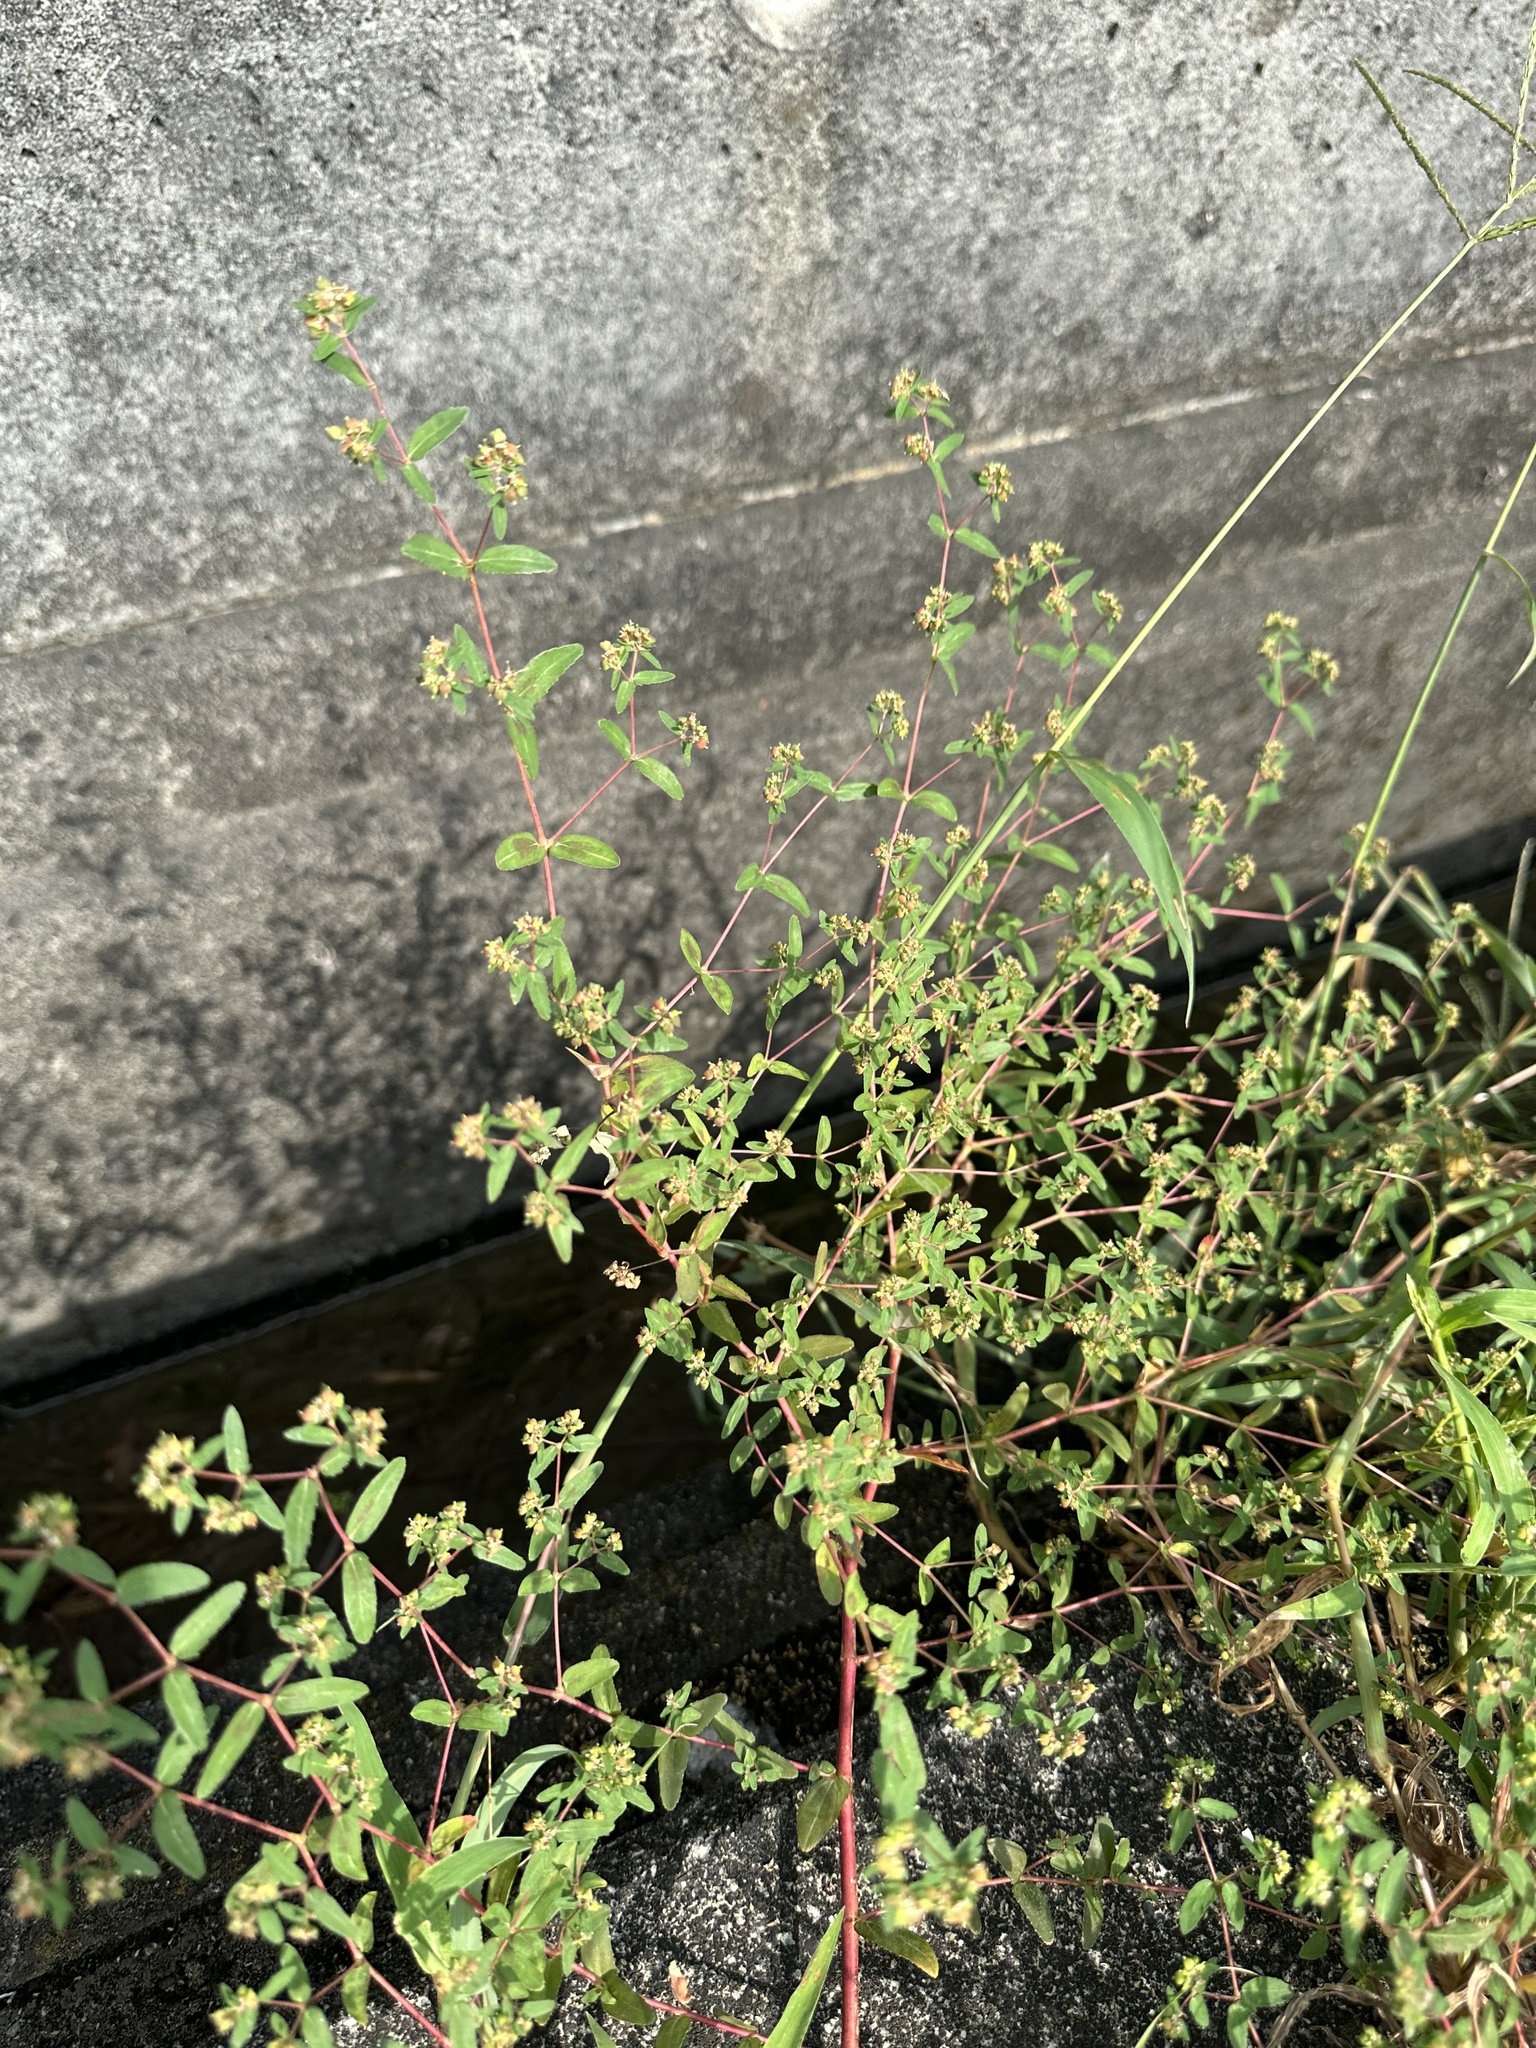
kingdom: Plantae
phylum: Tracheophyta
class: Magnoliopsida
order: Malpighiales
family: Euphorbiaceae
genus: Euphorbia
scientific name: Euphorbia nutans
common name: Eyebane
